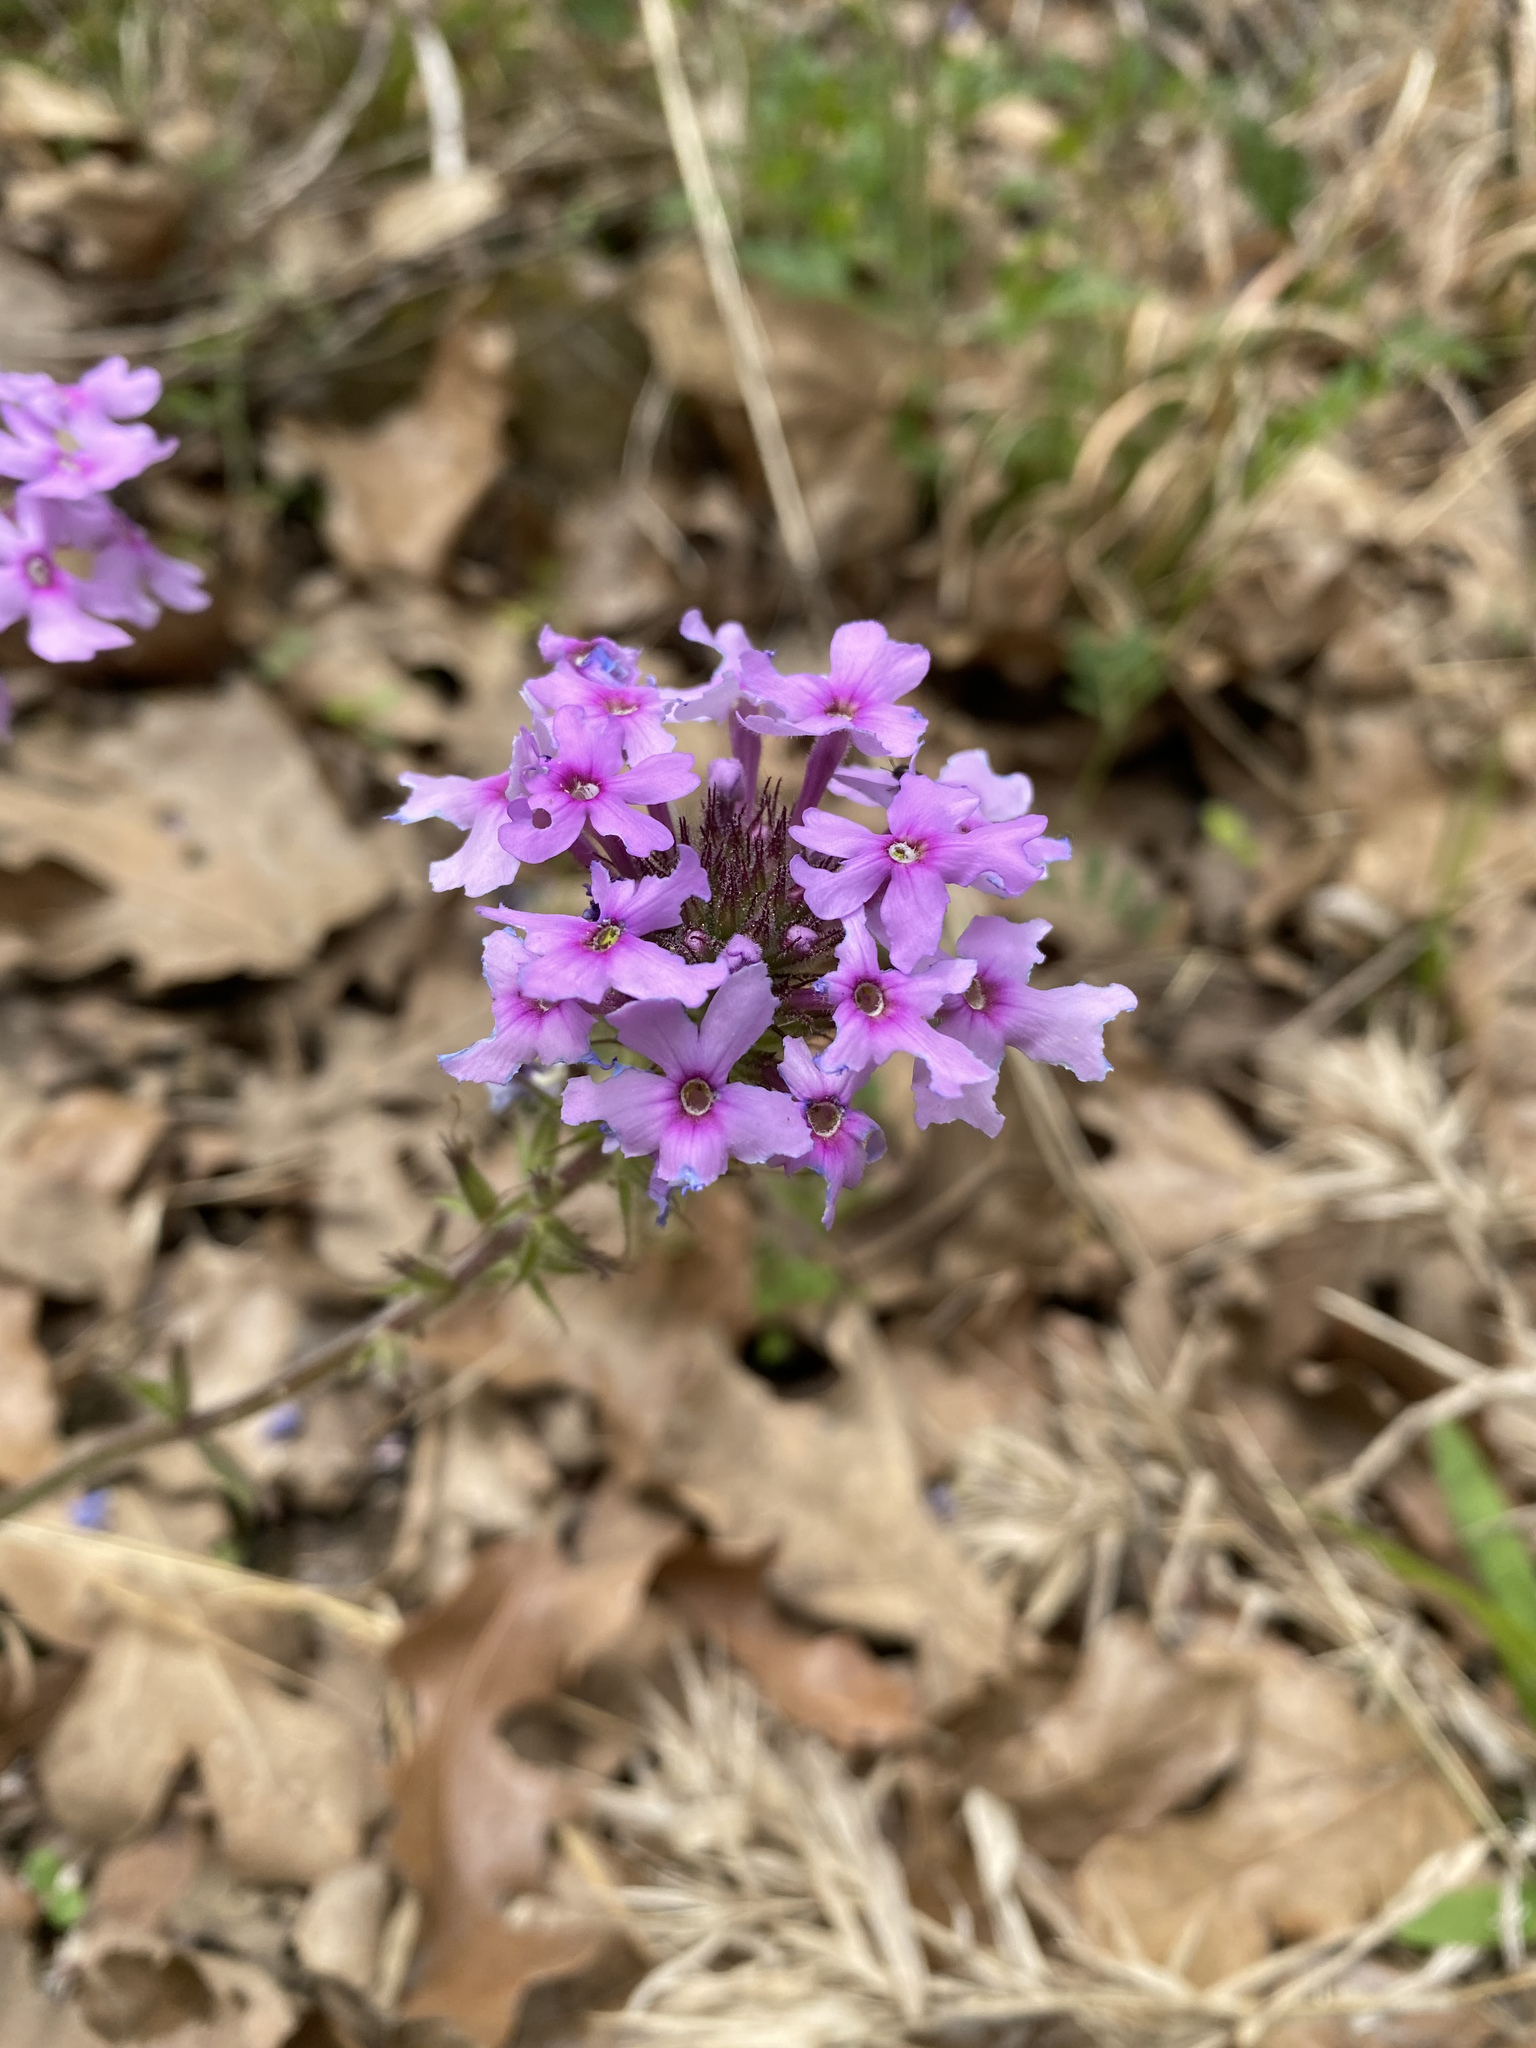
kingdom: Plantae
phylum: Tracheophyta
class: Magnoliopsida
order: Lamiales
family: Verbenaceae
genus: Verbena
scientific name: Verbena canadensis
